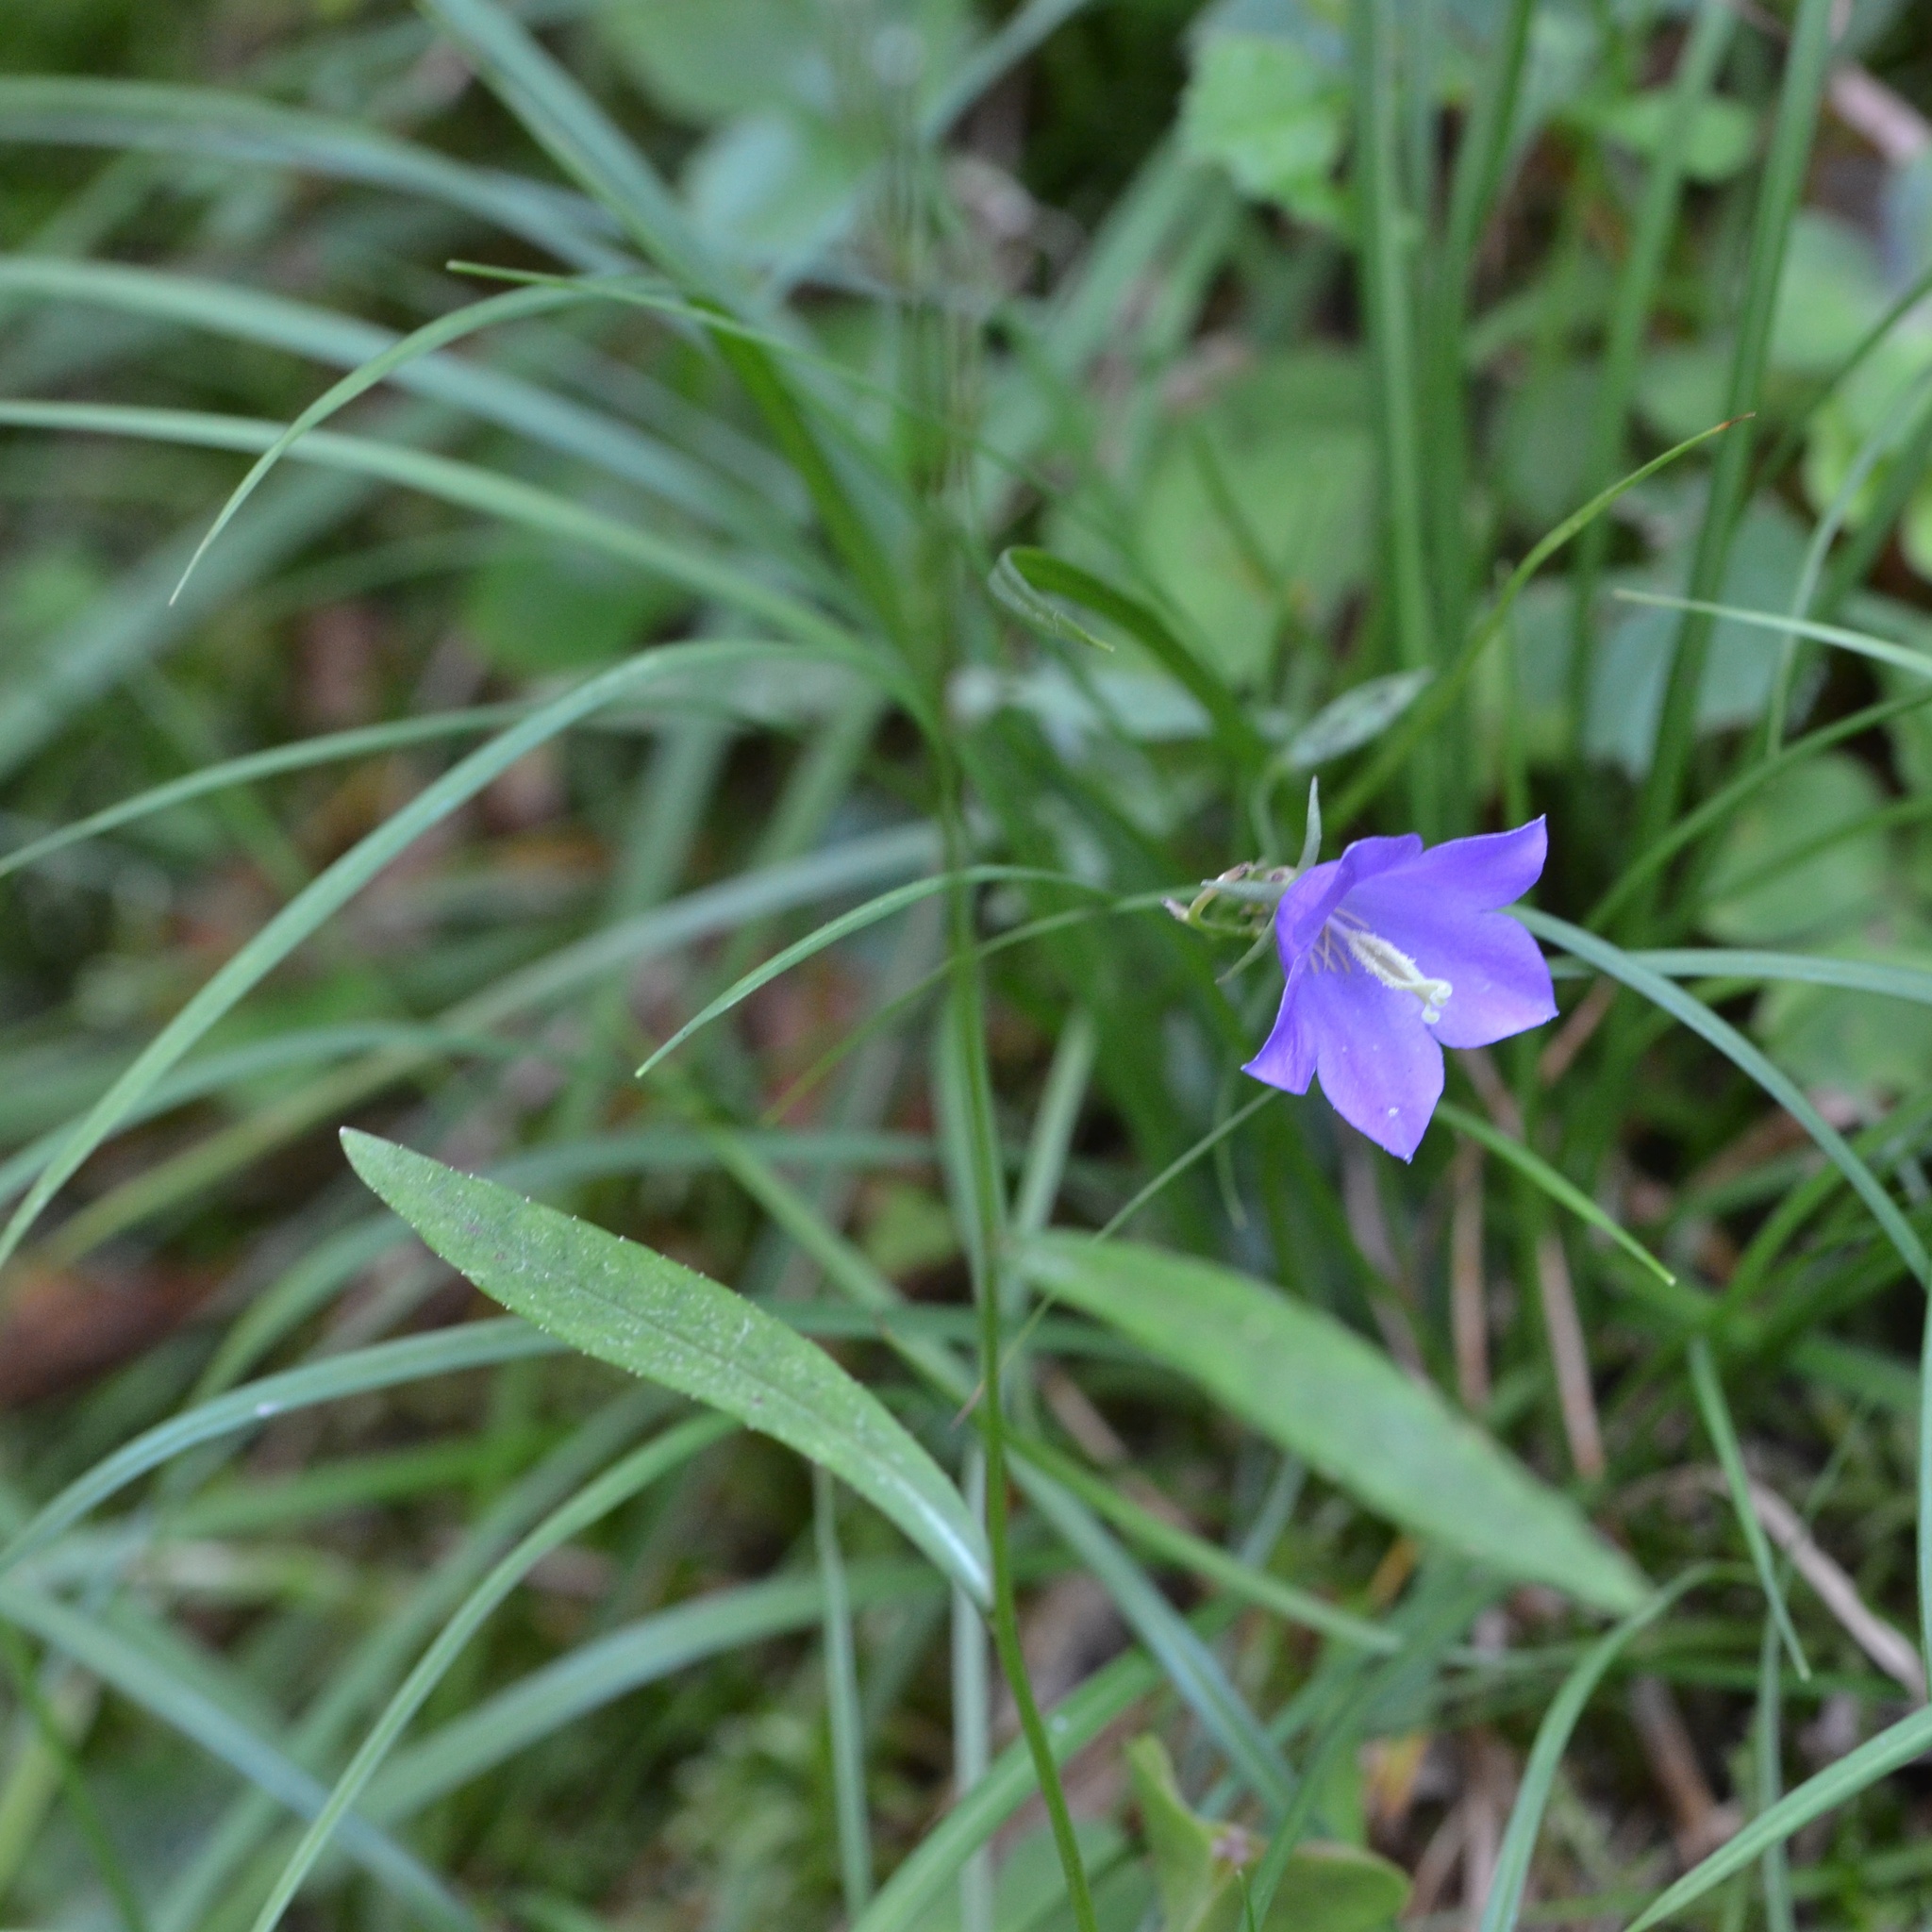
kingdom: Plantae
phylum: Tracheophyta
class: Magnoliopsida
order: Asterales
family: Campanulaceae
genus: Campanula
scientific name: Campanula persicifolia
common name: Peach-leaved bellflower
